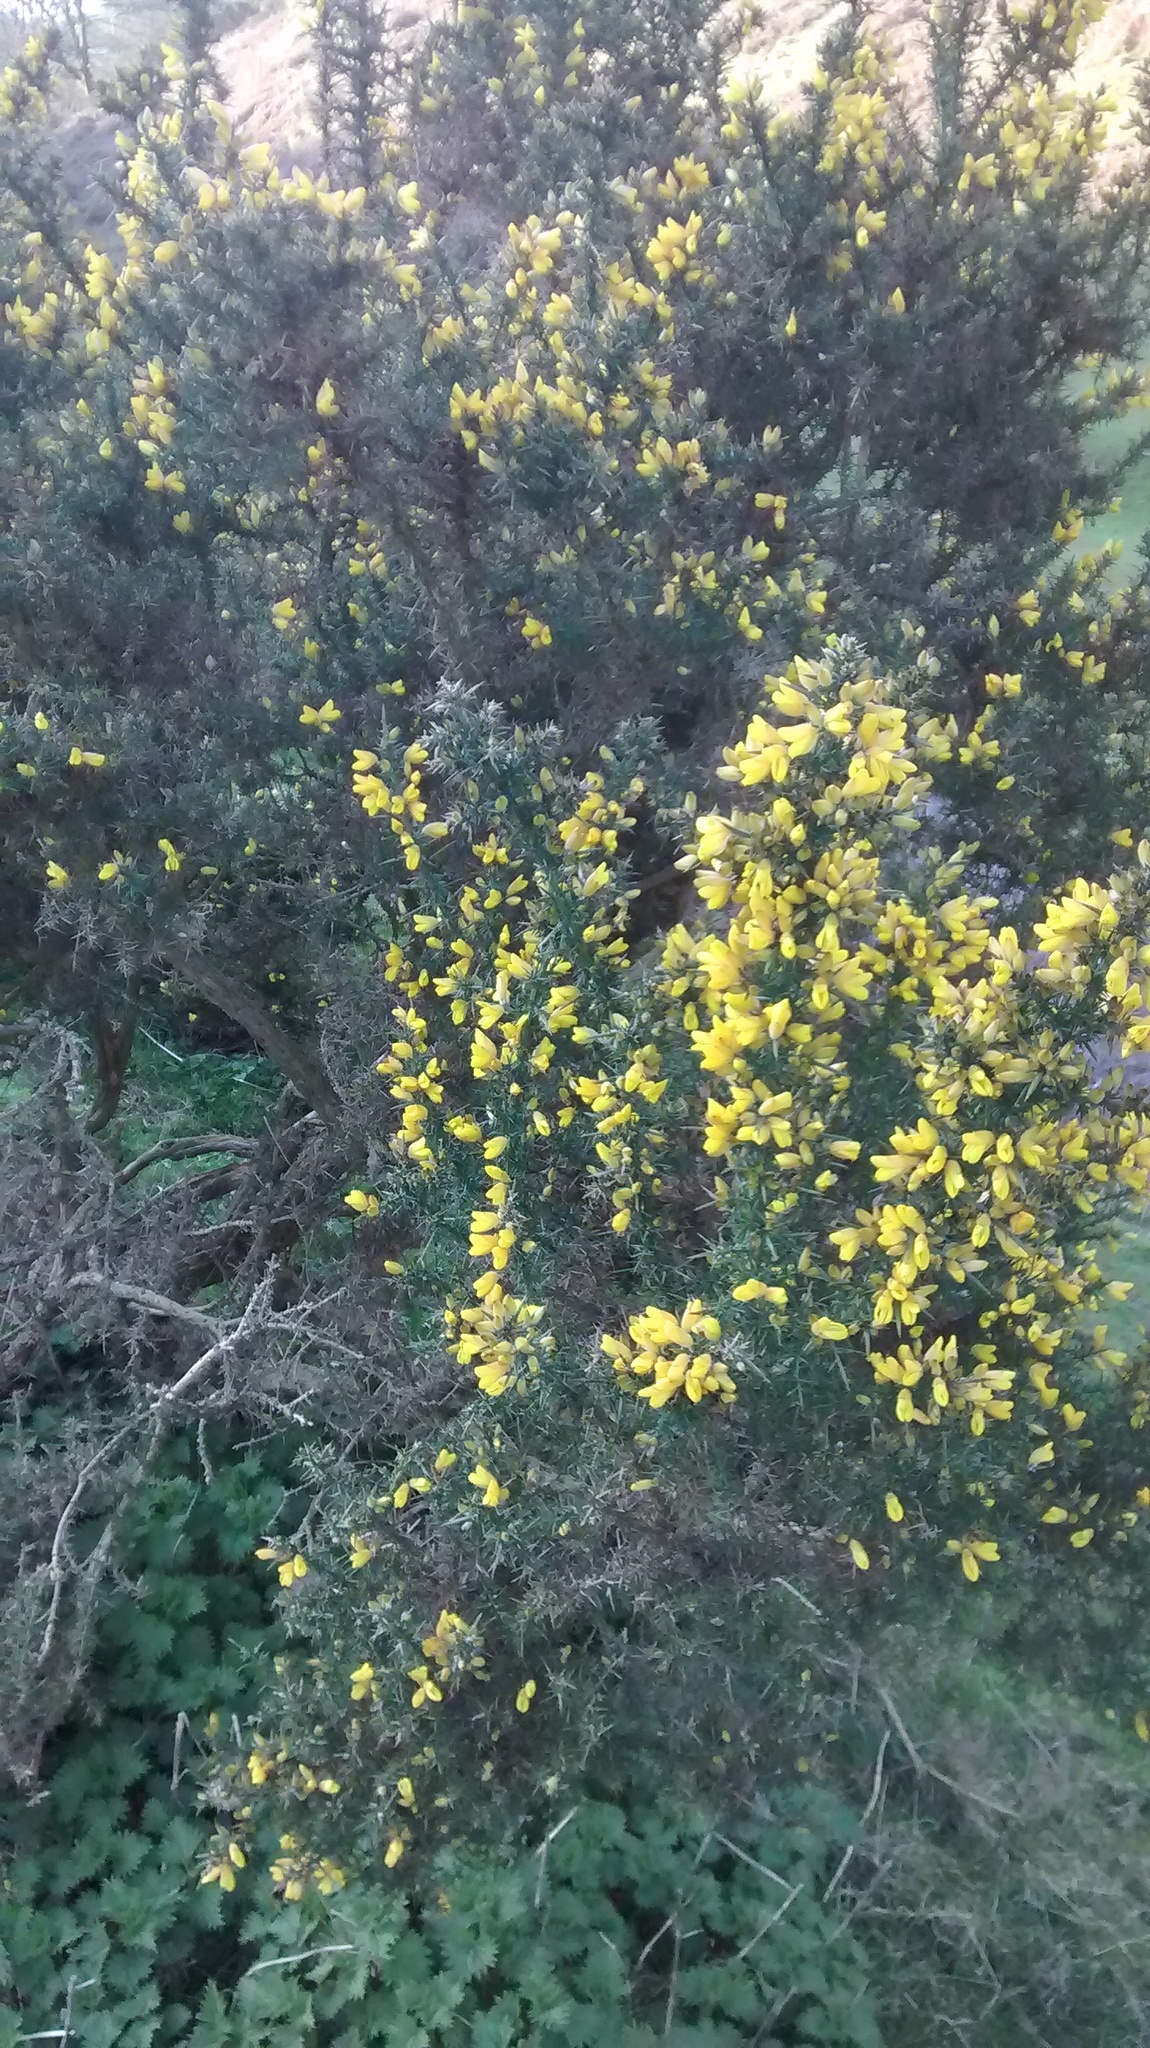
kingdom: Plantae
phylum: Tracheophyta
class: Magnoliopsida
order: Fabales
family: Fabaceae
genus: Ulex
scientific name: Ulex europaeus
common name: Common gorse
